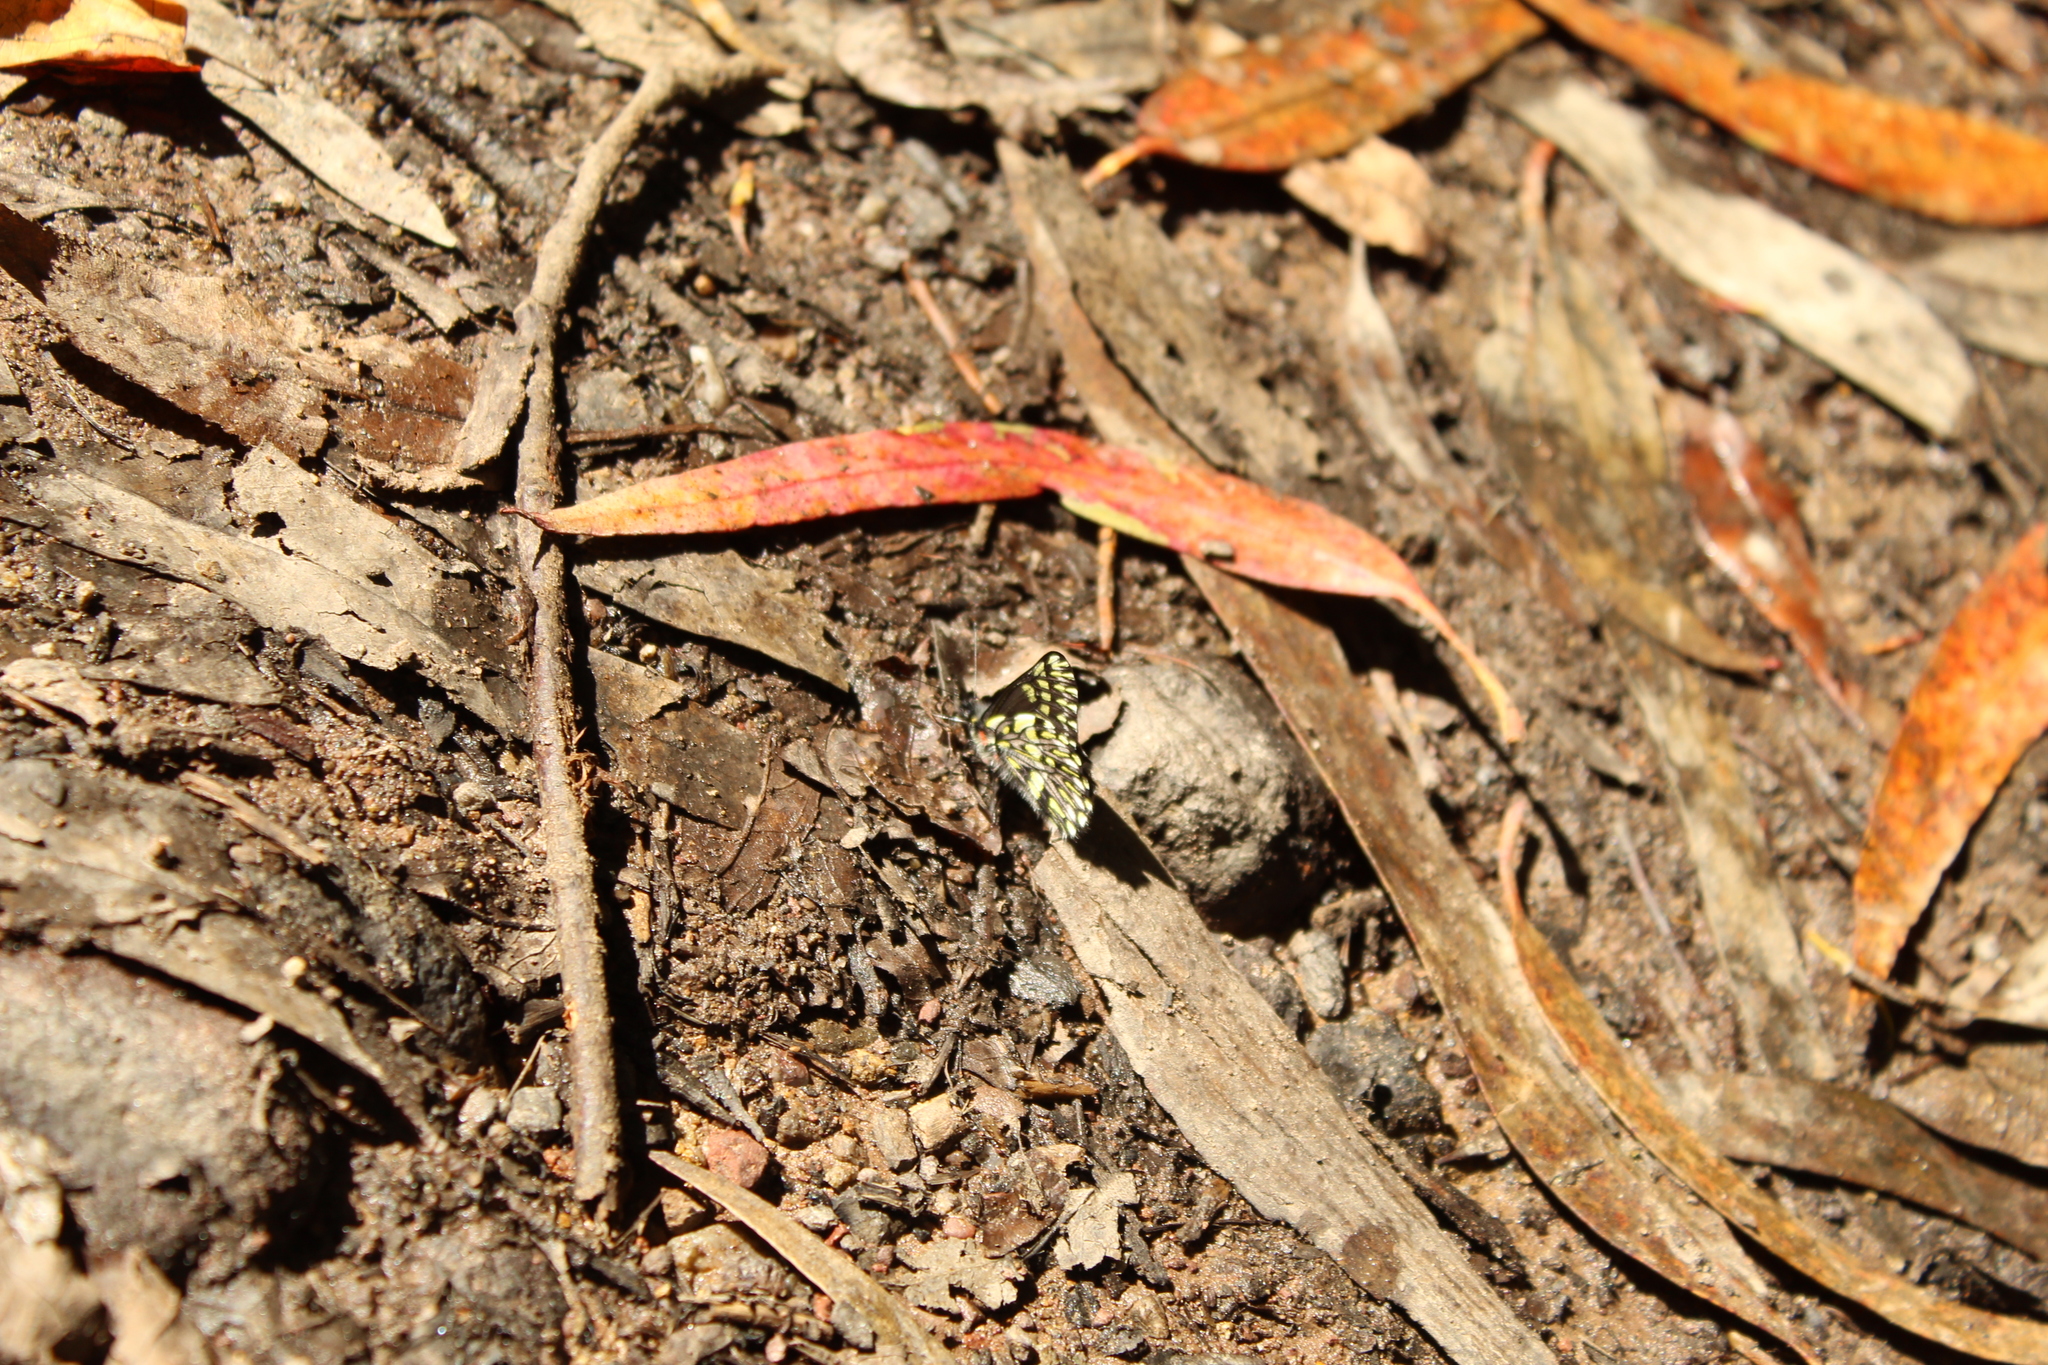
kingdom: Animalia
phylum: Arthropoda
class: Insecta
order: Lepidoptera
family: Pieridae
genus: Catasticta
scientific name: Catasticta semiramis
